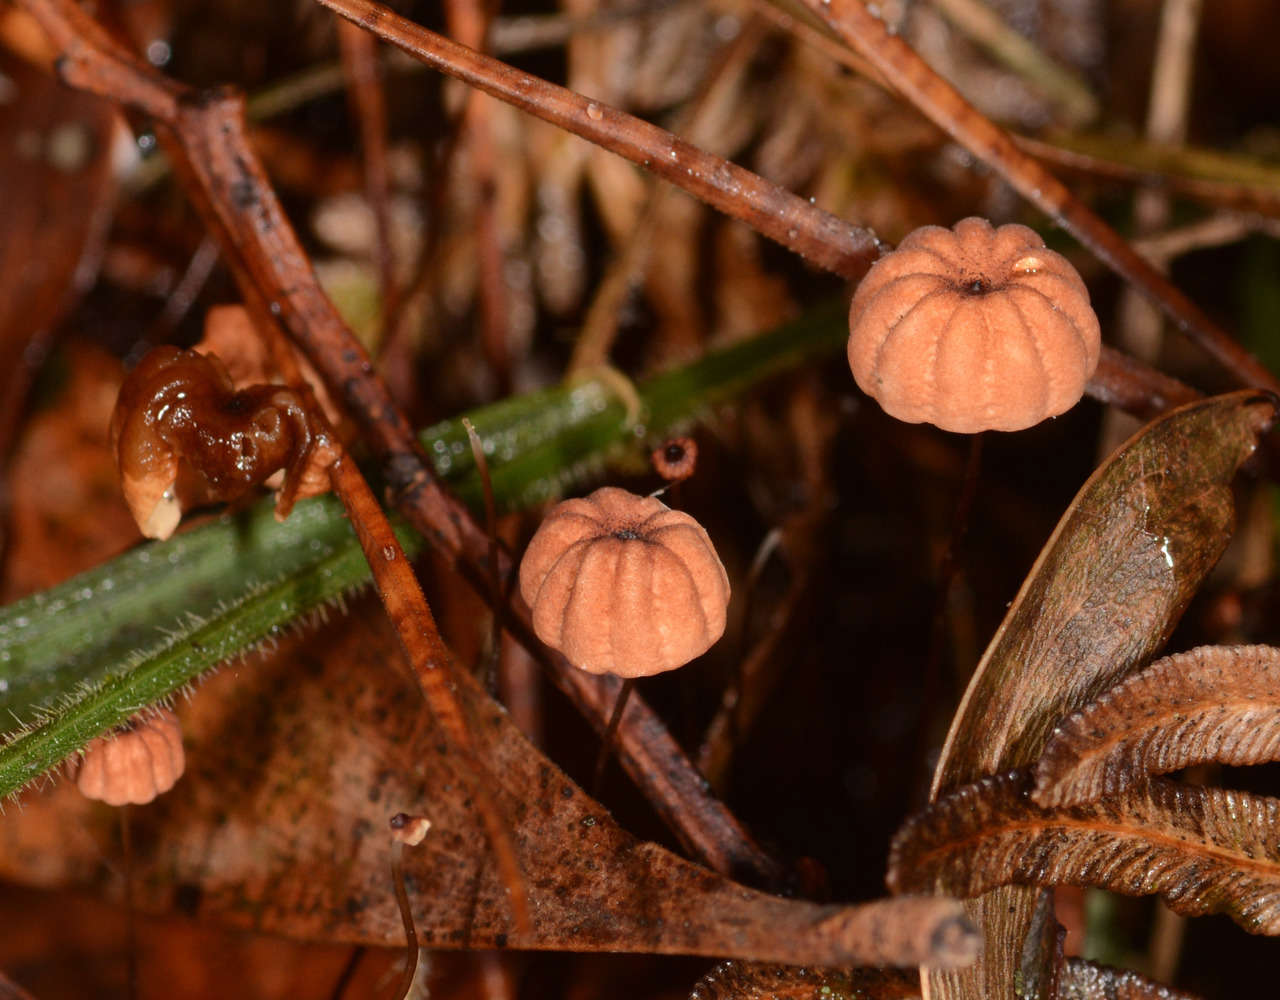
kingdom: Fungi
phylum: Basidiomycota
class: Agaricomycetes
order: Agaricales
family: Marasmiaceae
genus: Marasmius
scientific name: Marasmius crinis-equi
